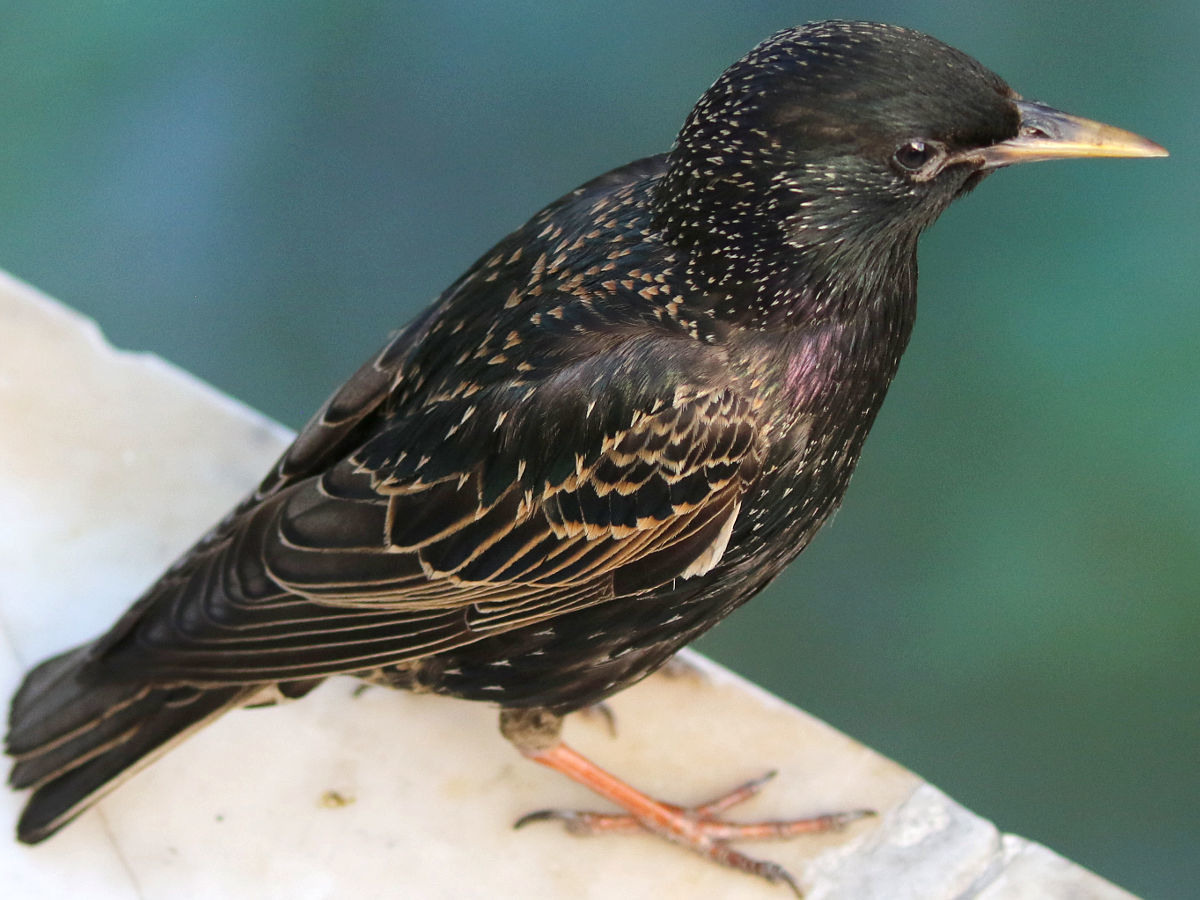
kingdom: Animalia
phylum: Chordata
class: Aves
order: Passeriformes
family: Sturnidae
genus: Sturnus
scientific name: Sturnus vulgaris
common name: Common starling
